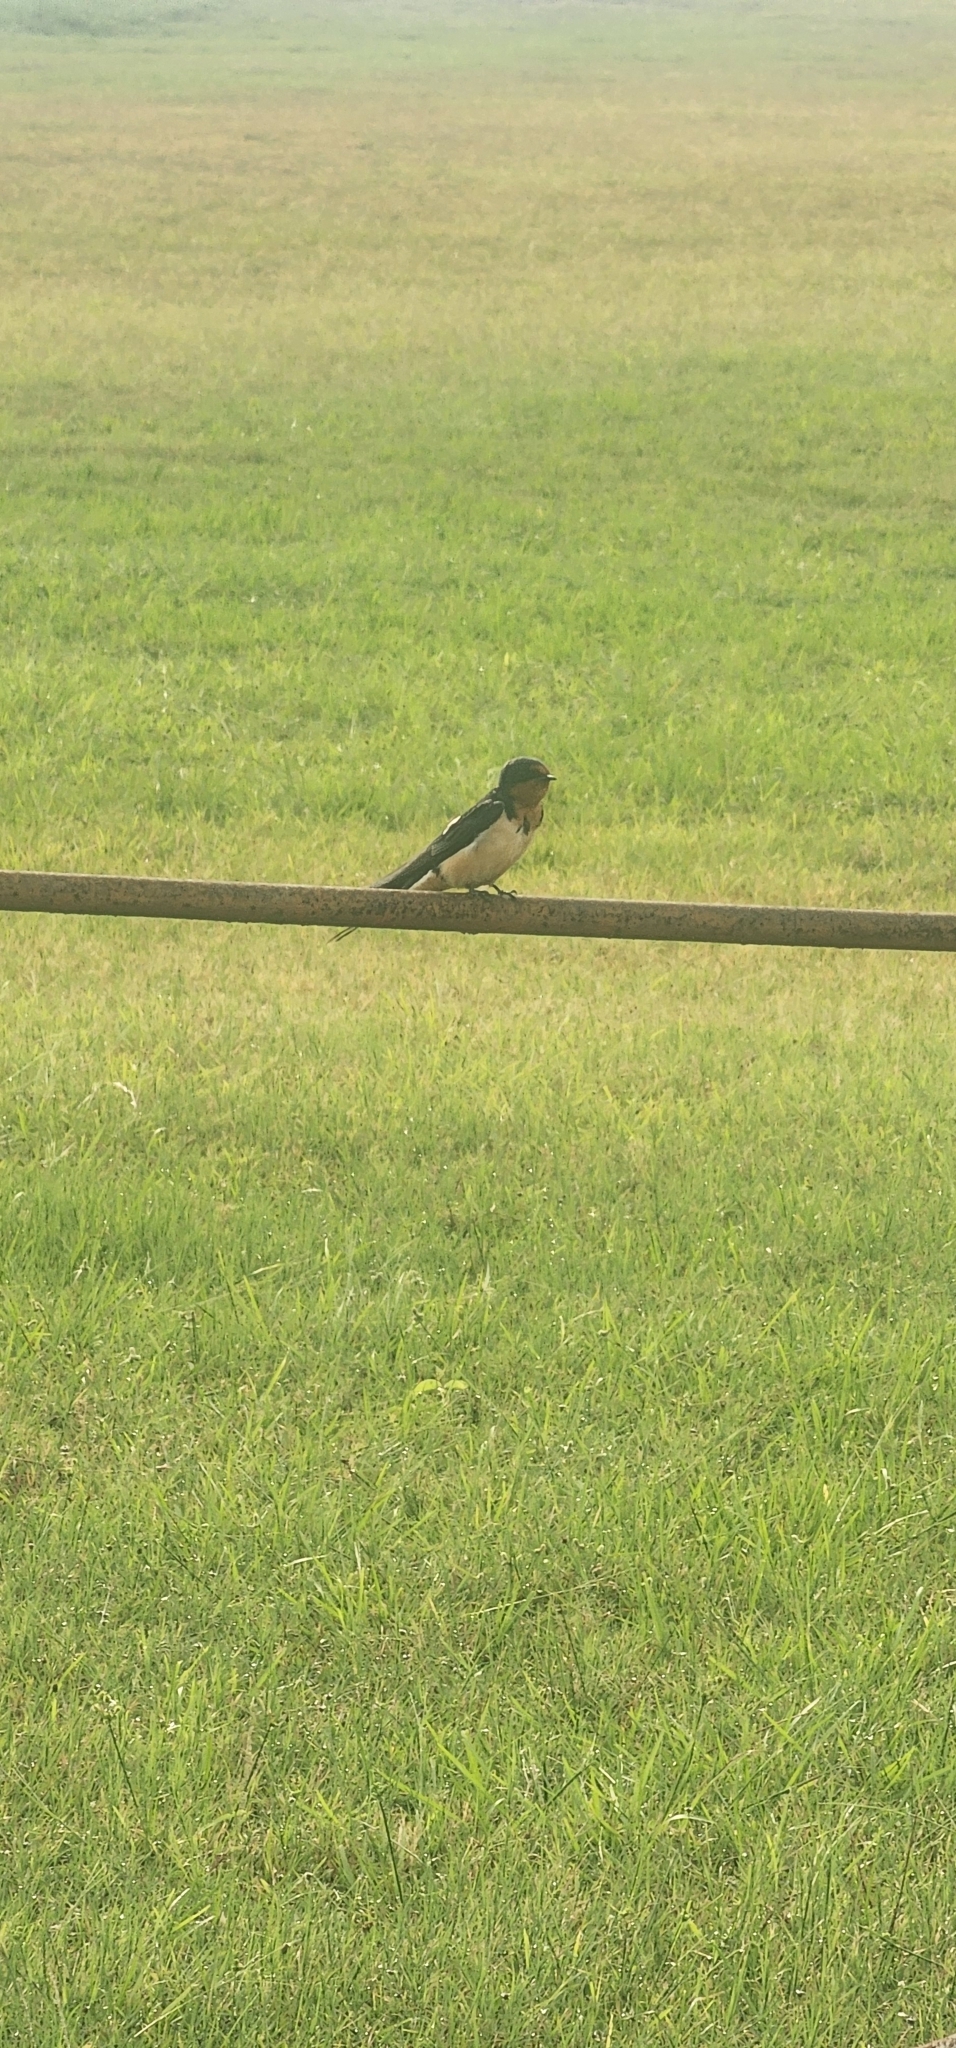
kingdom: Animalia
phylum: Chordata
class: Aves
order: Passeriformes
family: Hirundinidae
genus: Hirundo
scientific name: Hirundo rustica
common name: Barn swallow
